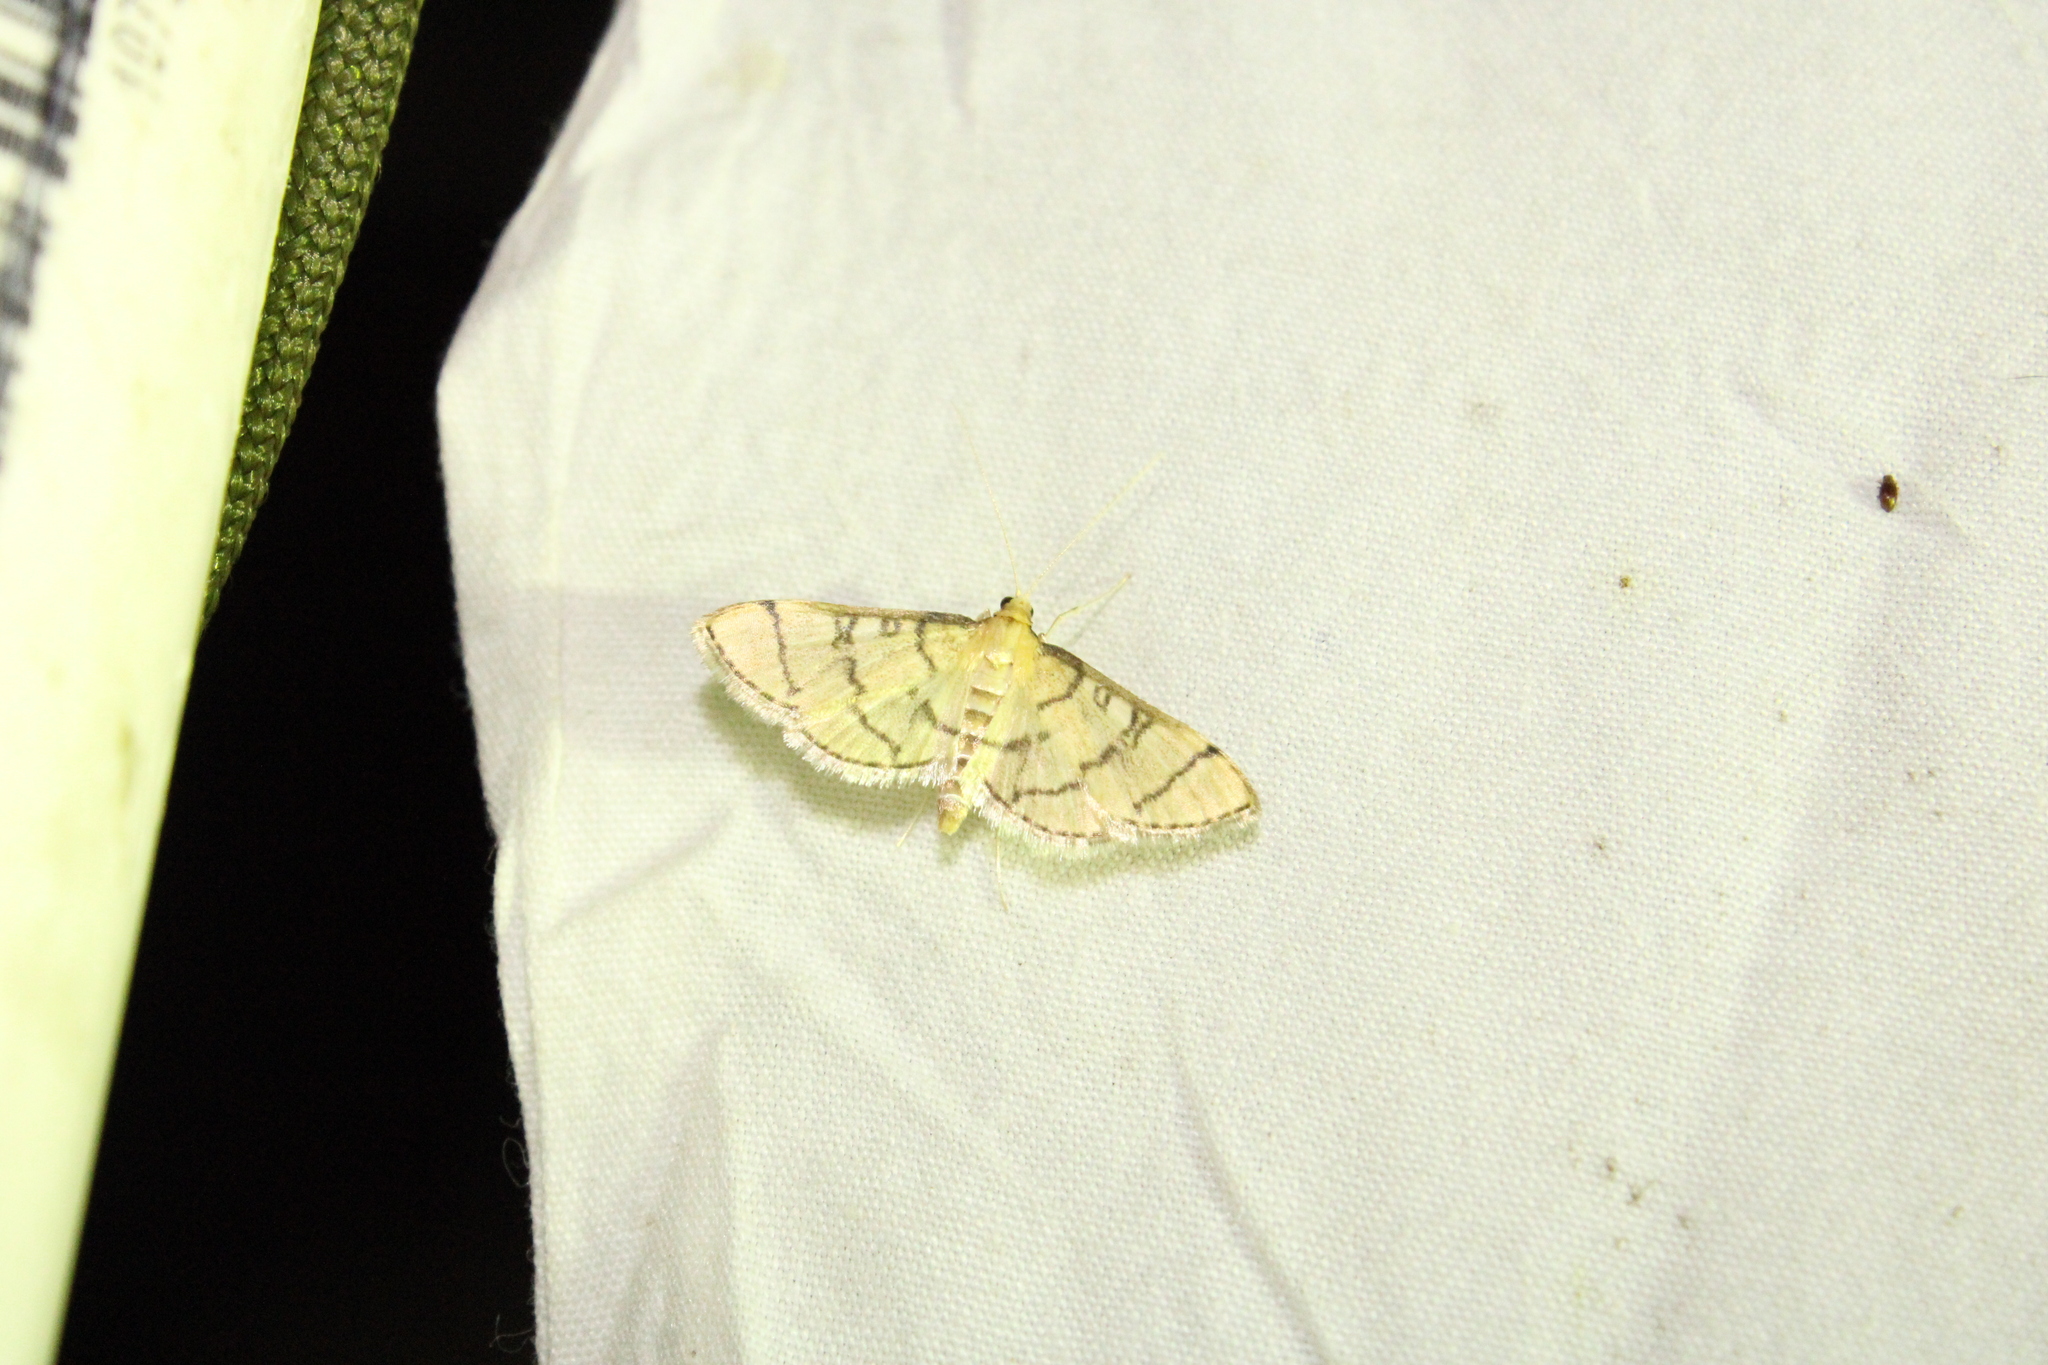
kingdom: Animalia
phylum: Arthropoda
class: Insecta
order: Lepidoptera
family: Crambidae
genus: Lamprosema
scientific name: Lamprosema Blepharomastix ranalis
